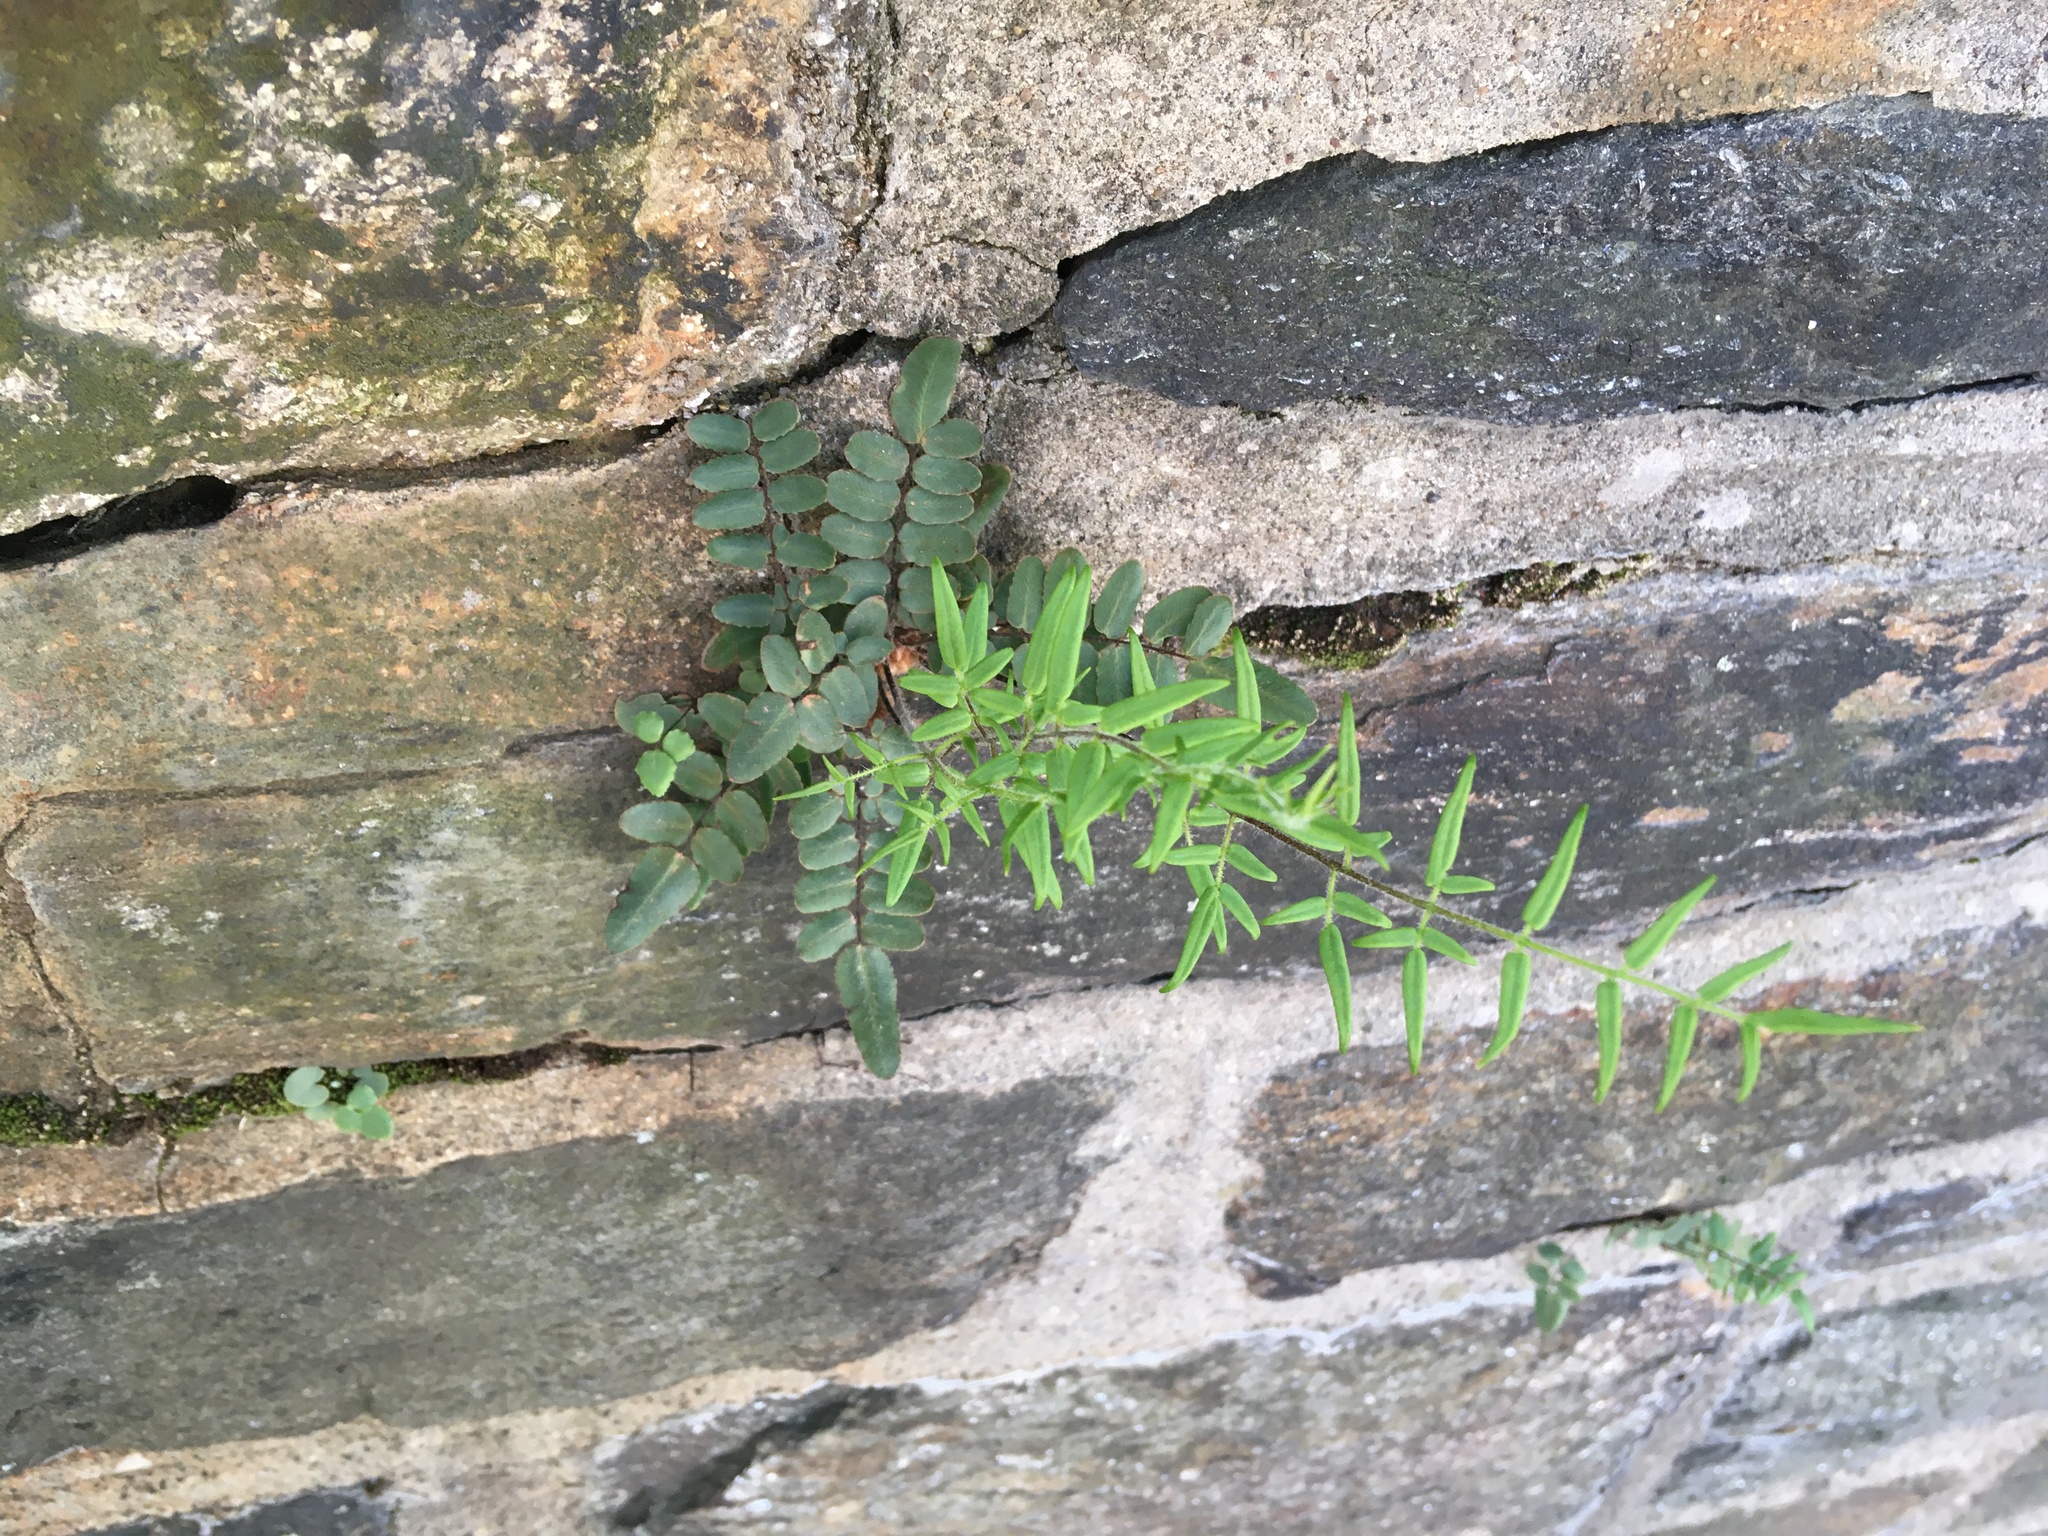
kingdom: Plantae
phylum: Tracheophyta
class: Polypodiopsida
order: Polypodiales
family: Pteridaceae
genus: Pellaea
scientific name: Pellaea atropurpurea
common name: Hairy cliffbrake
